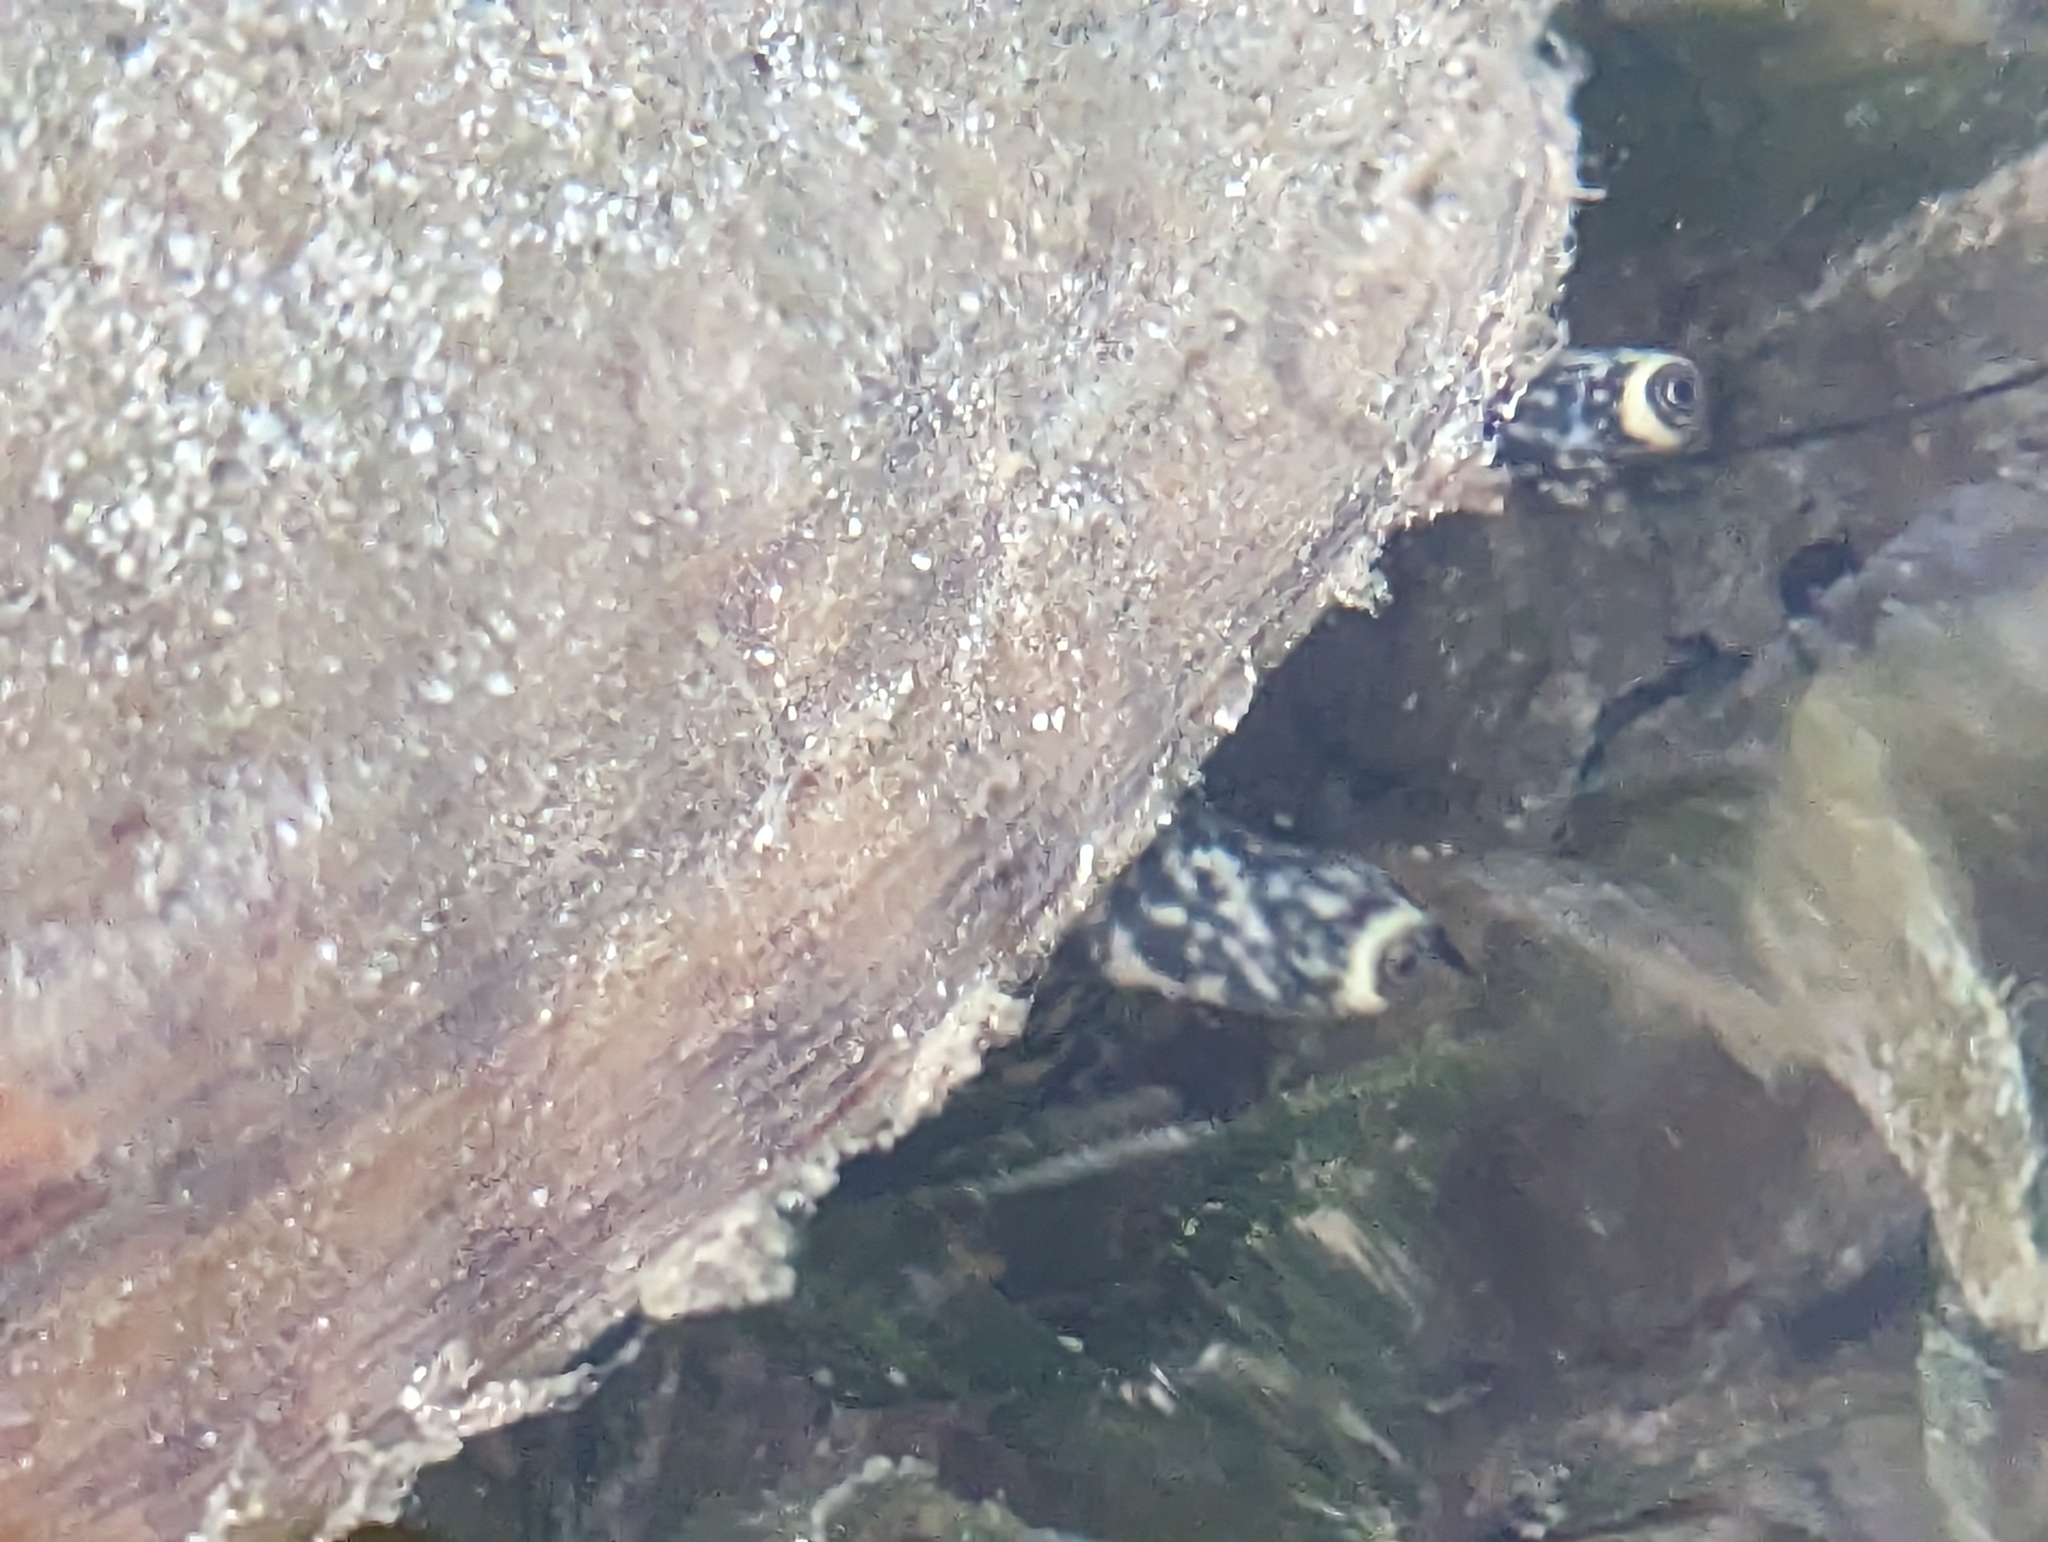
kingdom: Animalia
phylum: Mollusca
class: Gastropoda
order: Littorinimorpha
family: Strombidae
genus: Aliger
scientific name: Aliger gigas
